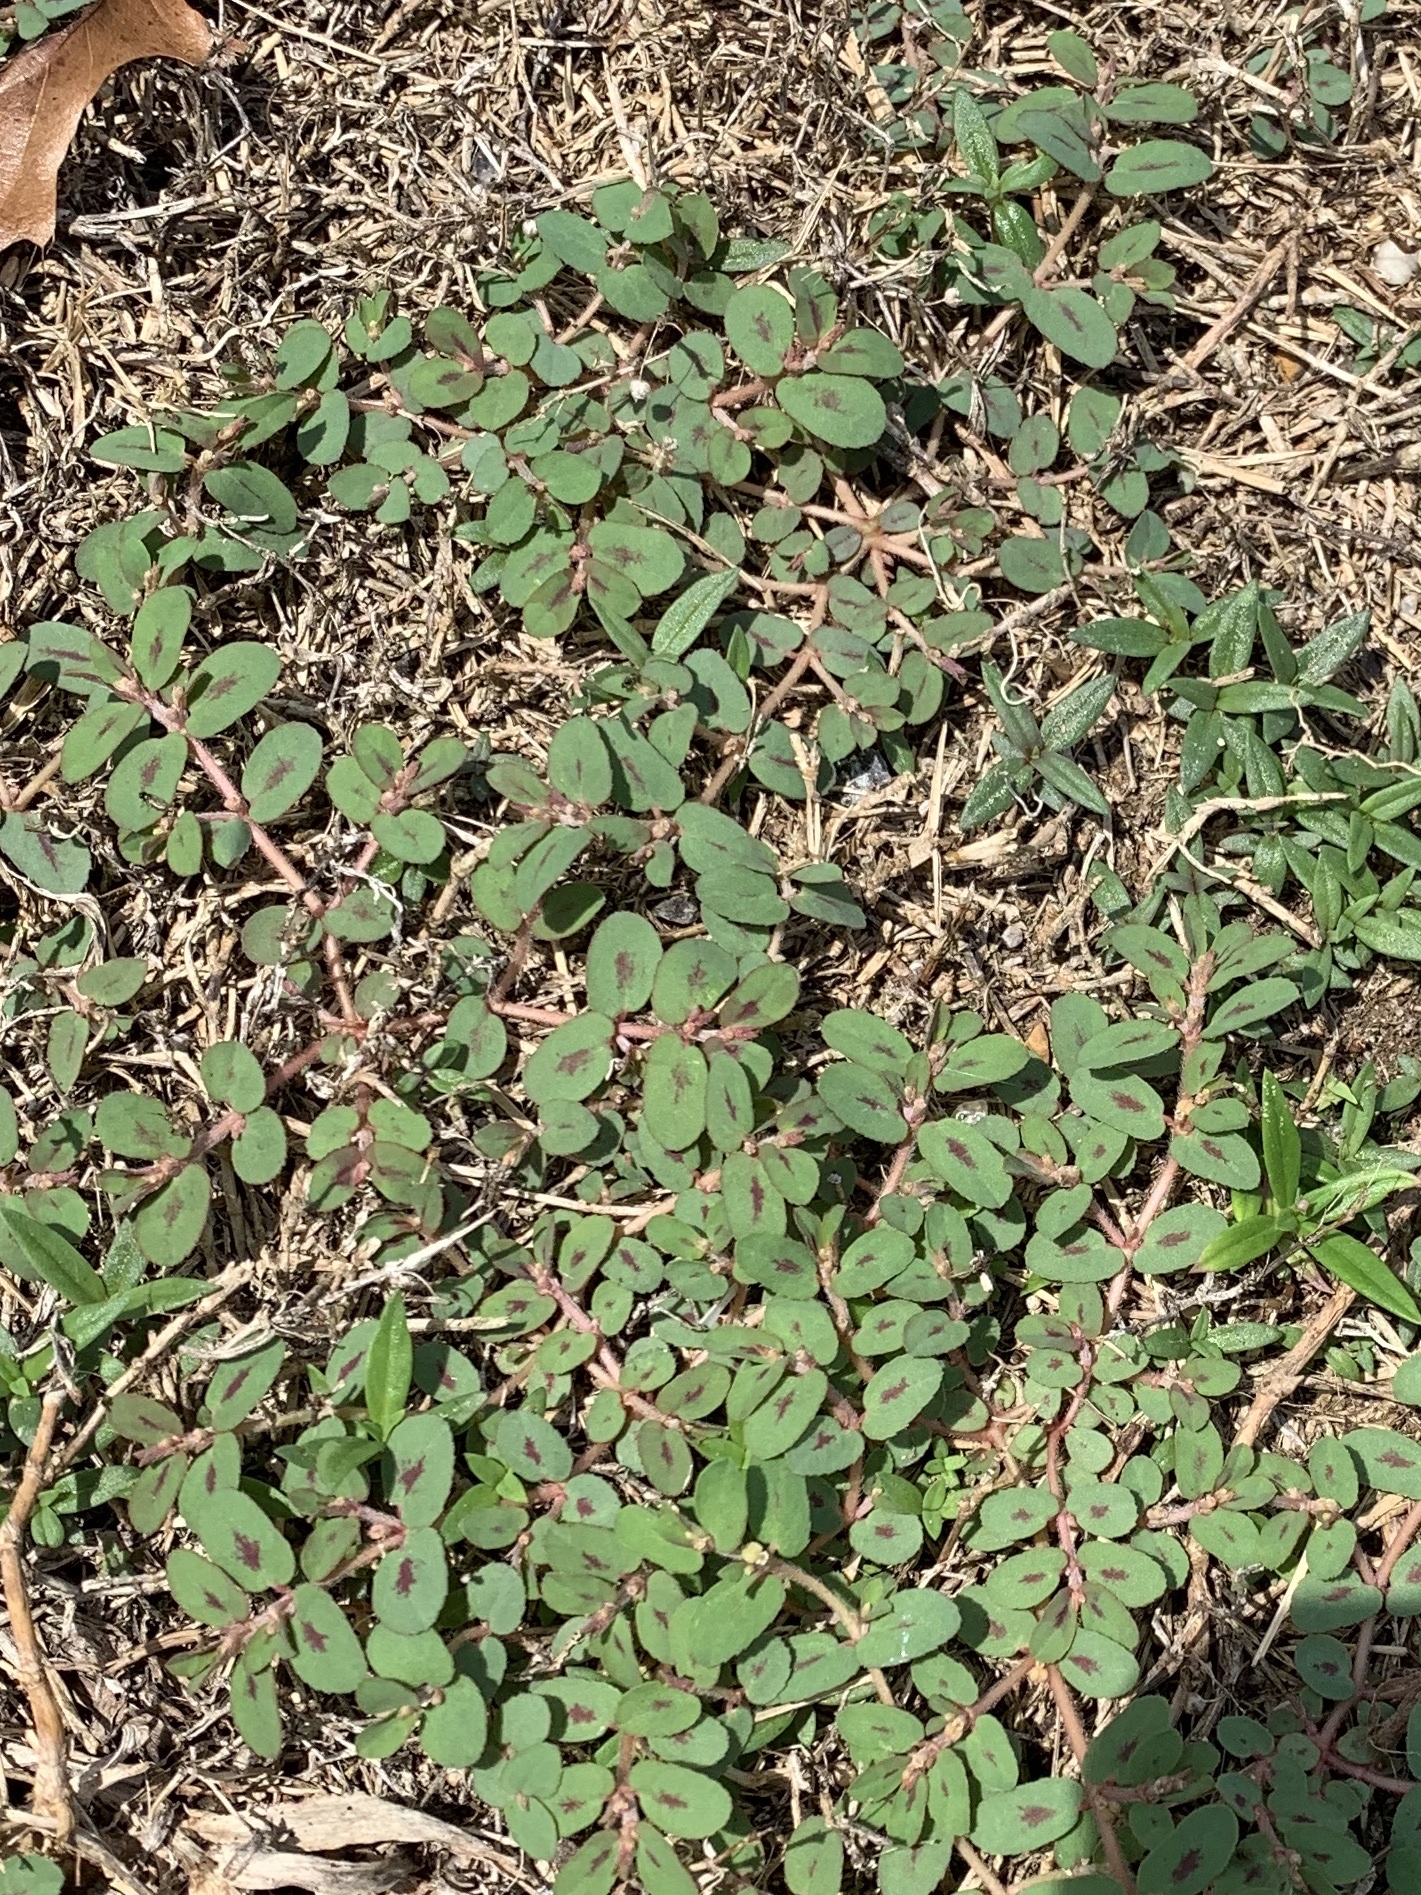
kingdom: Plantae
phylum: Tracheophyta
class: Magnoliopsida
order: Malpighiales
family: Euphorbiaceae
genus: Euphorbia
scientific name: Euphorbia maculata
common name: Spotted spurge
